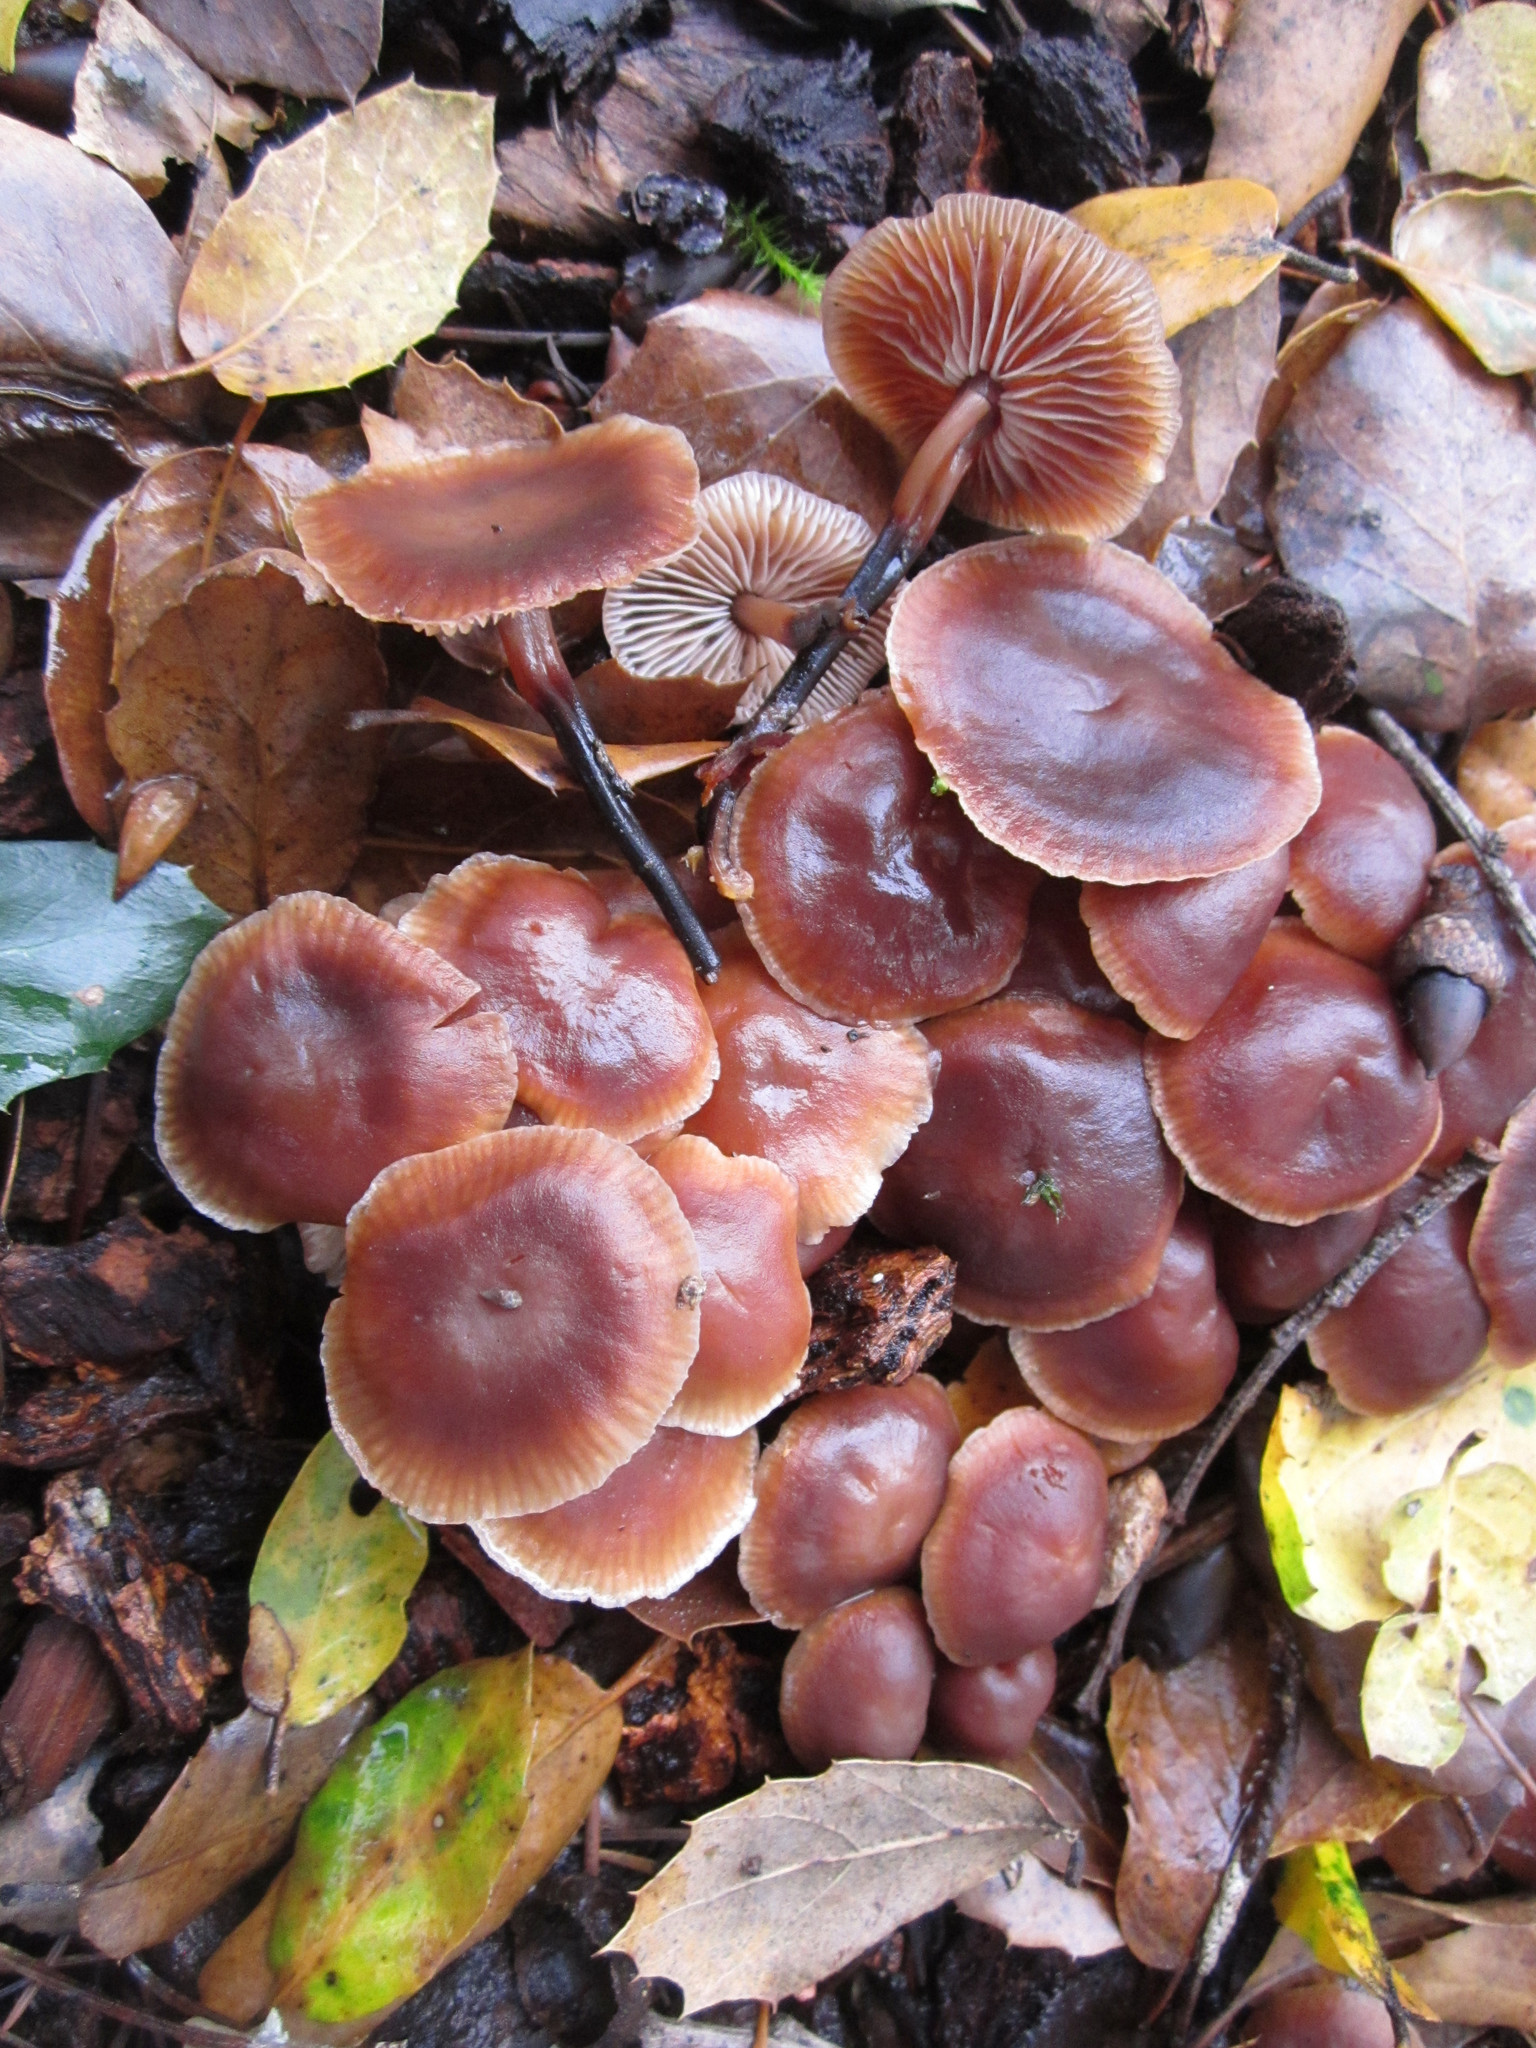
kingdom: Fungi
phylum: Basidiomycota
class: Agaricomycetes
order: Agaricales
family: Omphalotaceae
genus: Gymnopus
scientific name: Gymnopus brassicolens
